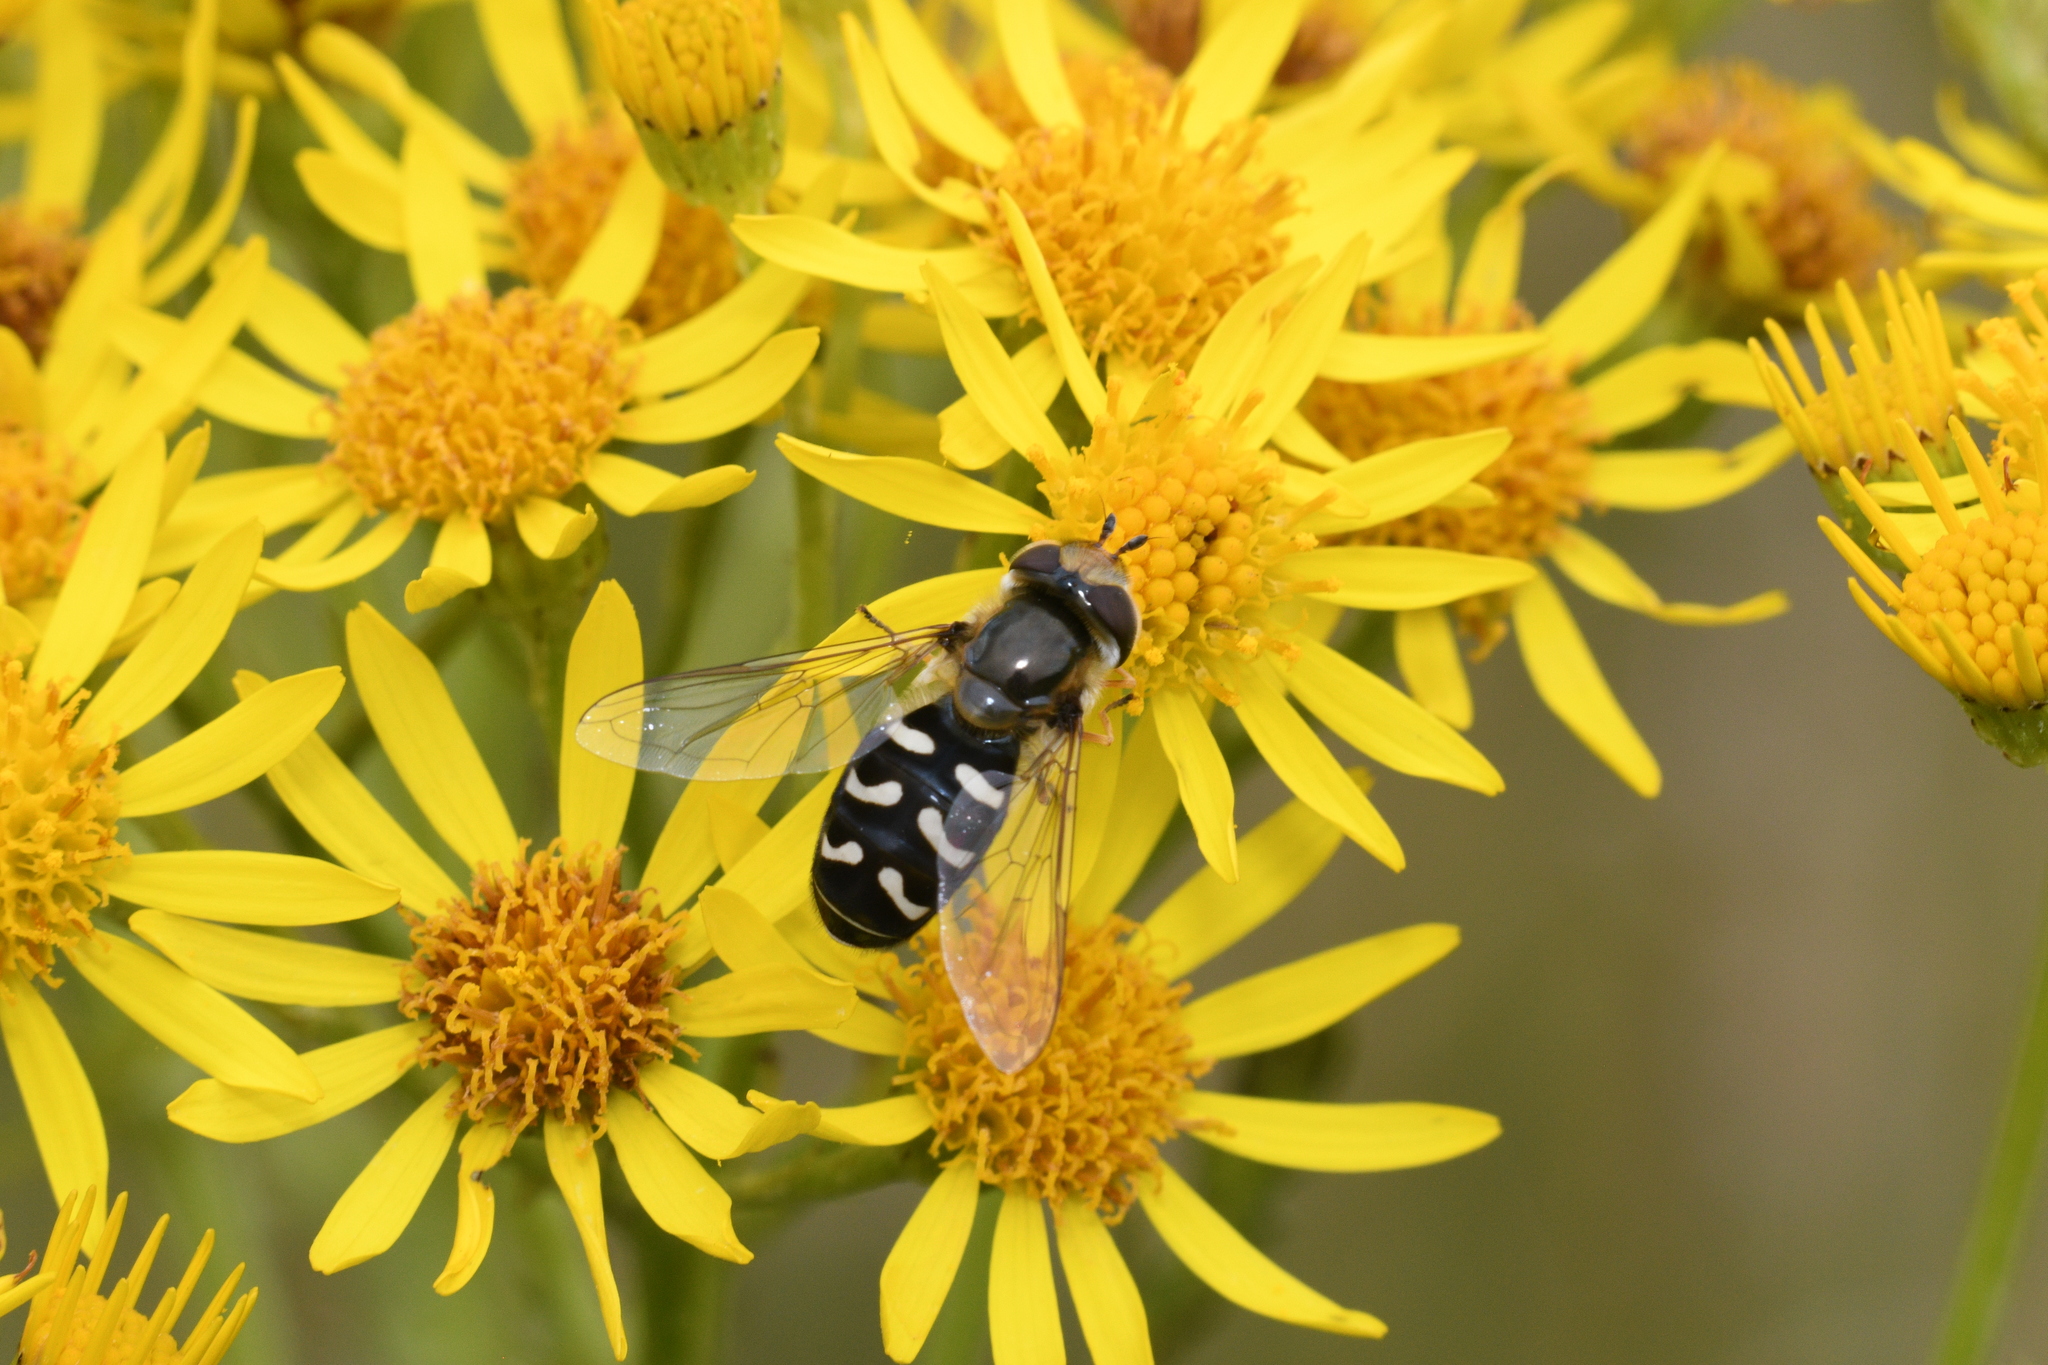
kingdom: Animalia
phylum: Arthropoda
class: Insecta
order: Diptera
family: Syrphidae
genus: Scaeva
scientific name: Scaeva pyrastri
